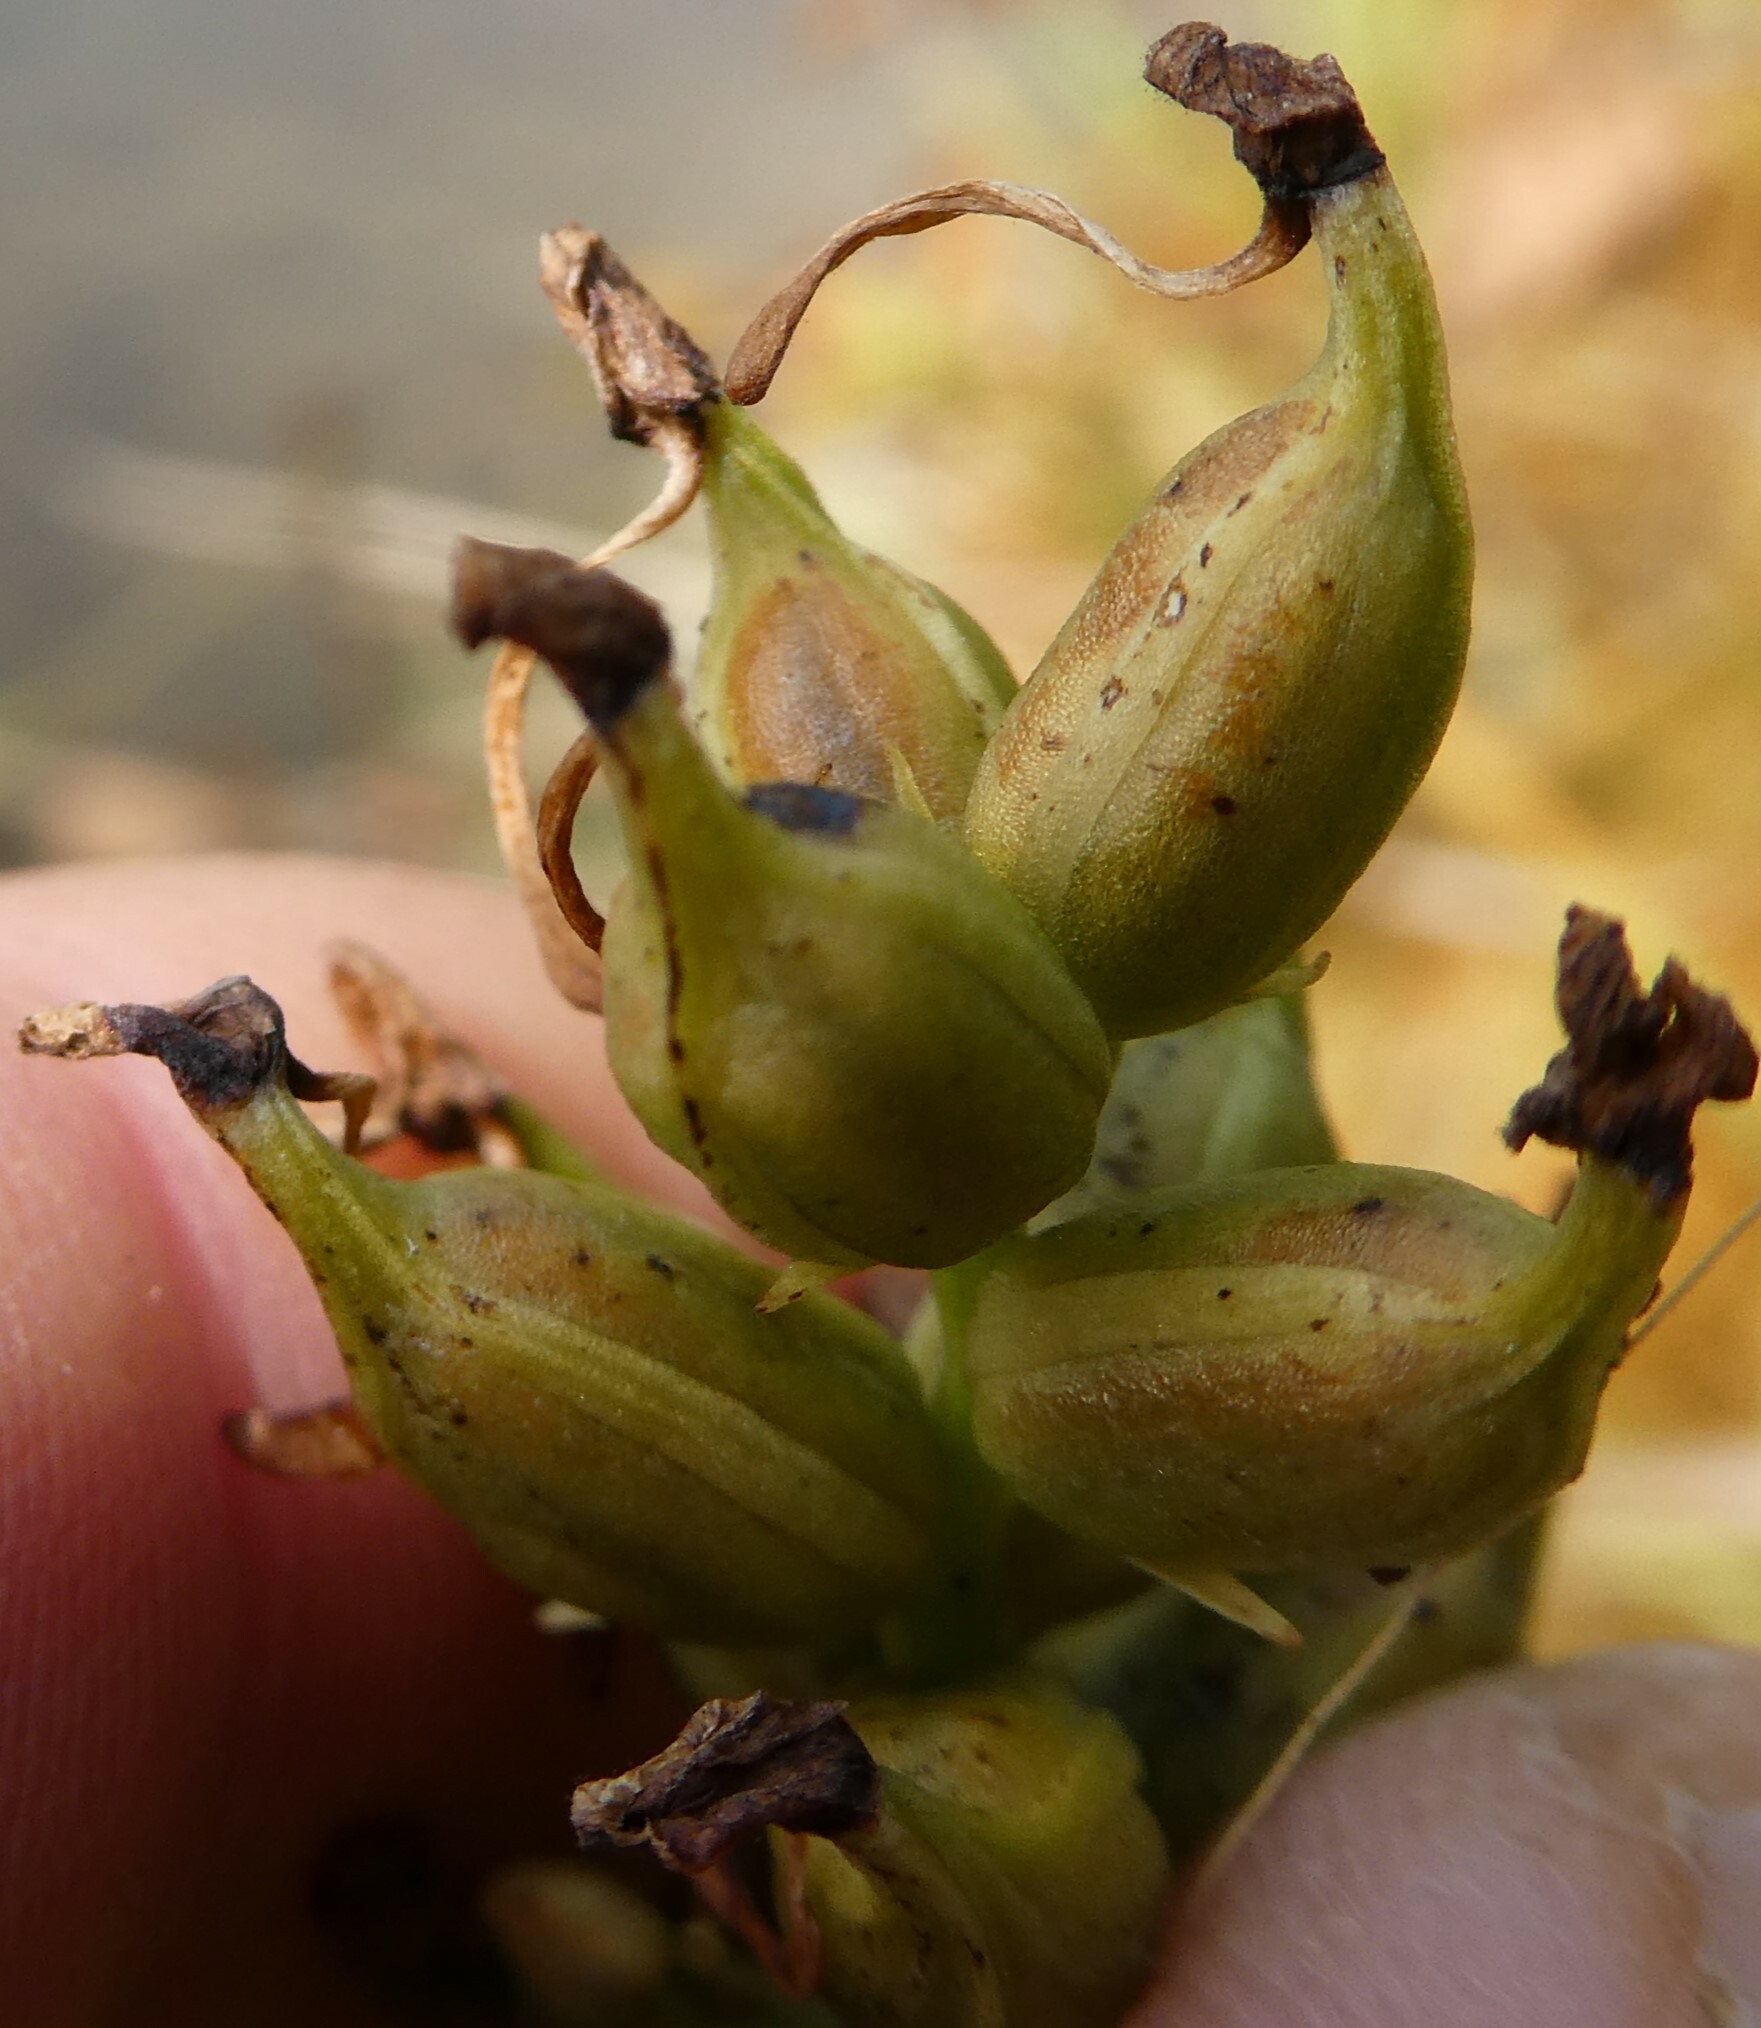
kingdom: Plantae
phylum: Tracheophyta
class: Liliopsida
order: Asparagales
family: Orchidaceae
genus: Platanthera
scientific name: Platanthera clavellata
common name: Club-spur orchid
